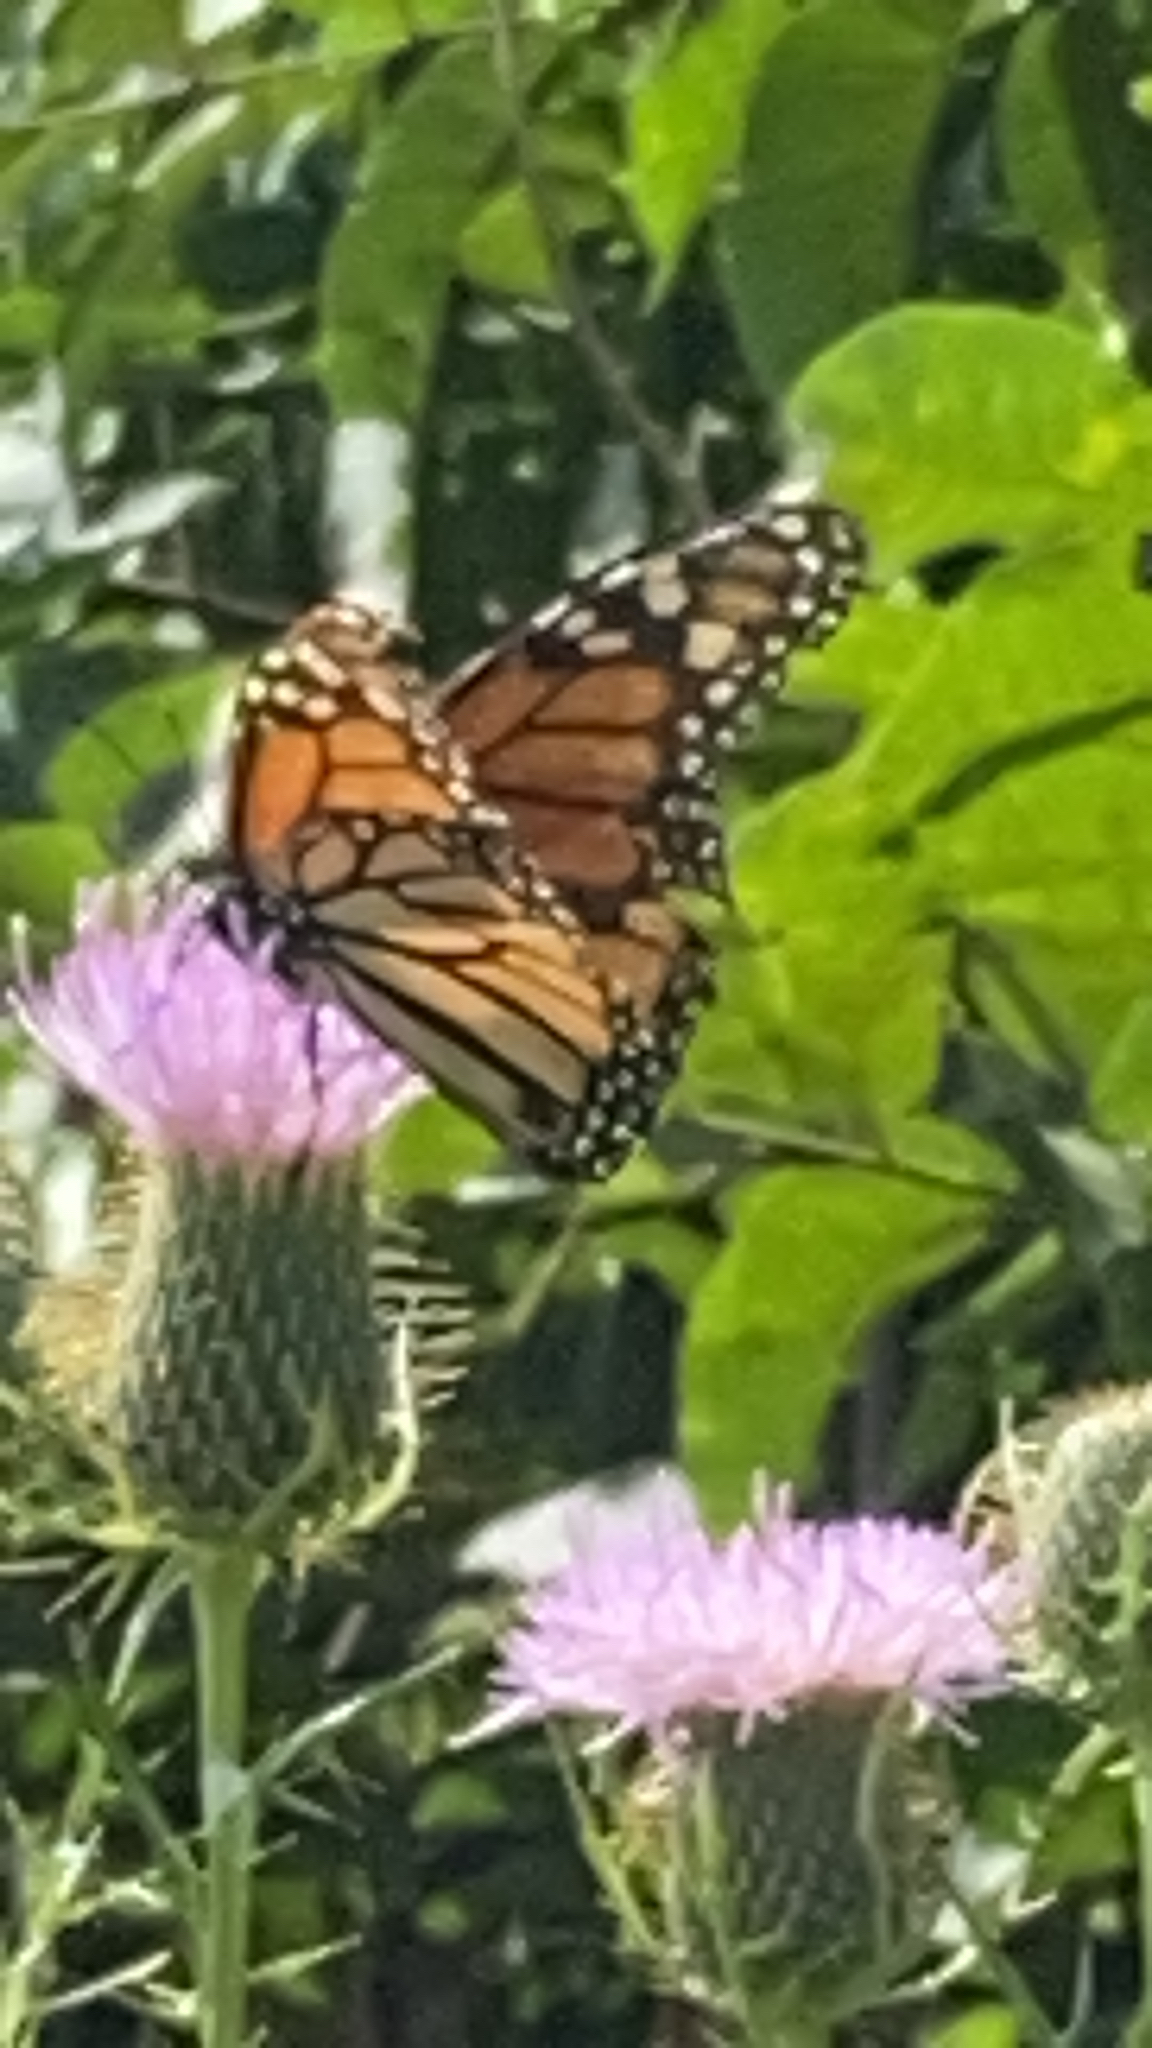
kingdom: Animalia
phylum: Arthropoda
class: Insecta
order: Lepidoptera
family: Nymphalidae
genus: Danaus
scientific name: Danaus plexippus
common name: Monarch
